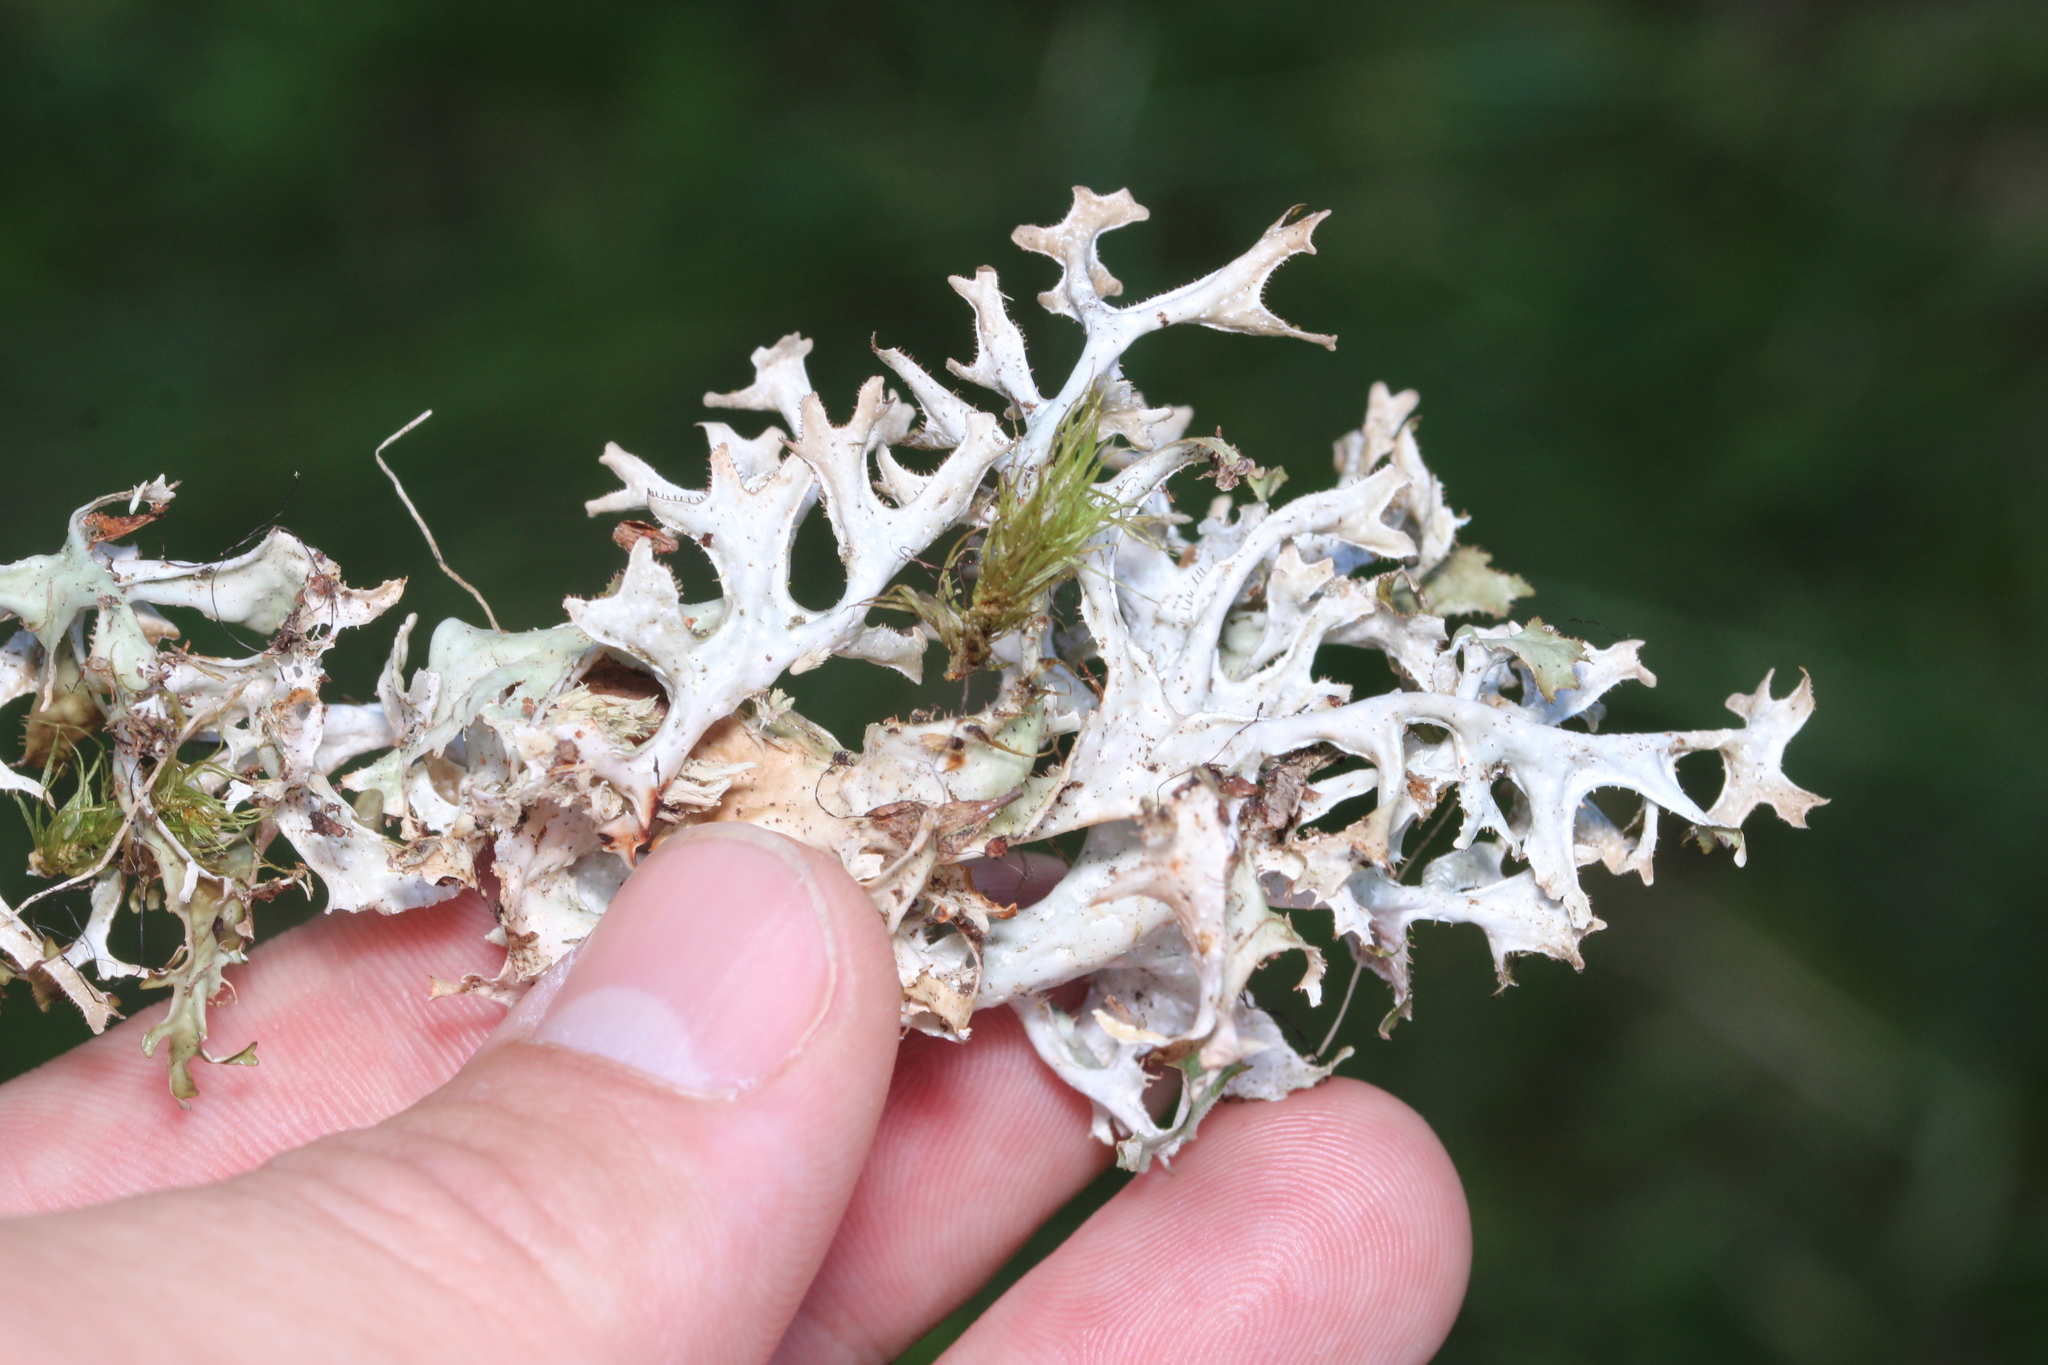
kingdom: Fungi
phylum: Ascomycota
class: Lecanoromycetes
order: Lecanorales
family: Parmeliaceae
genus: Cetraria
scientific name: Cetraria islandica
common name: Iceland lichen
